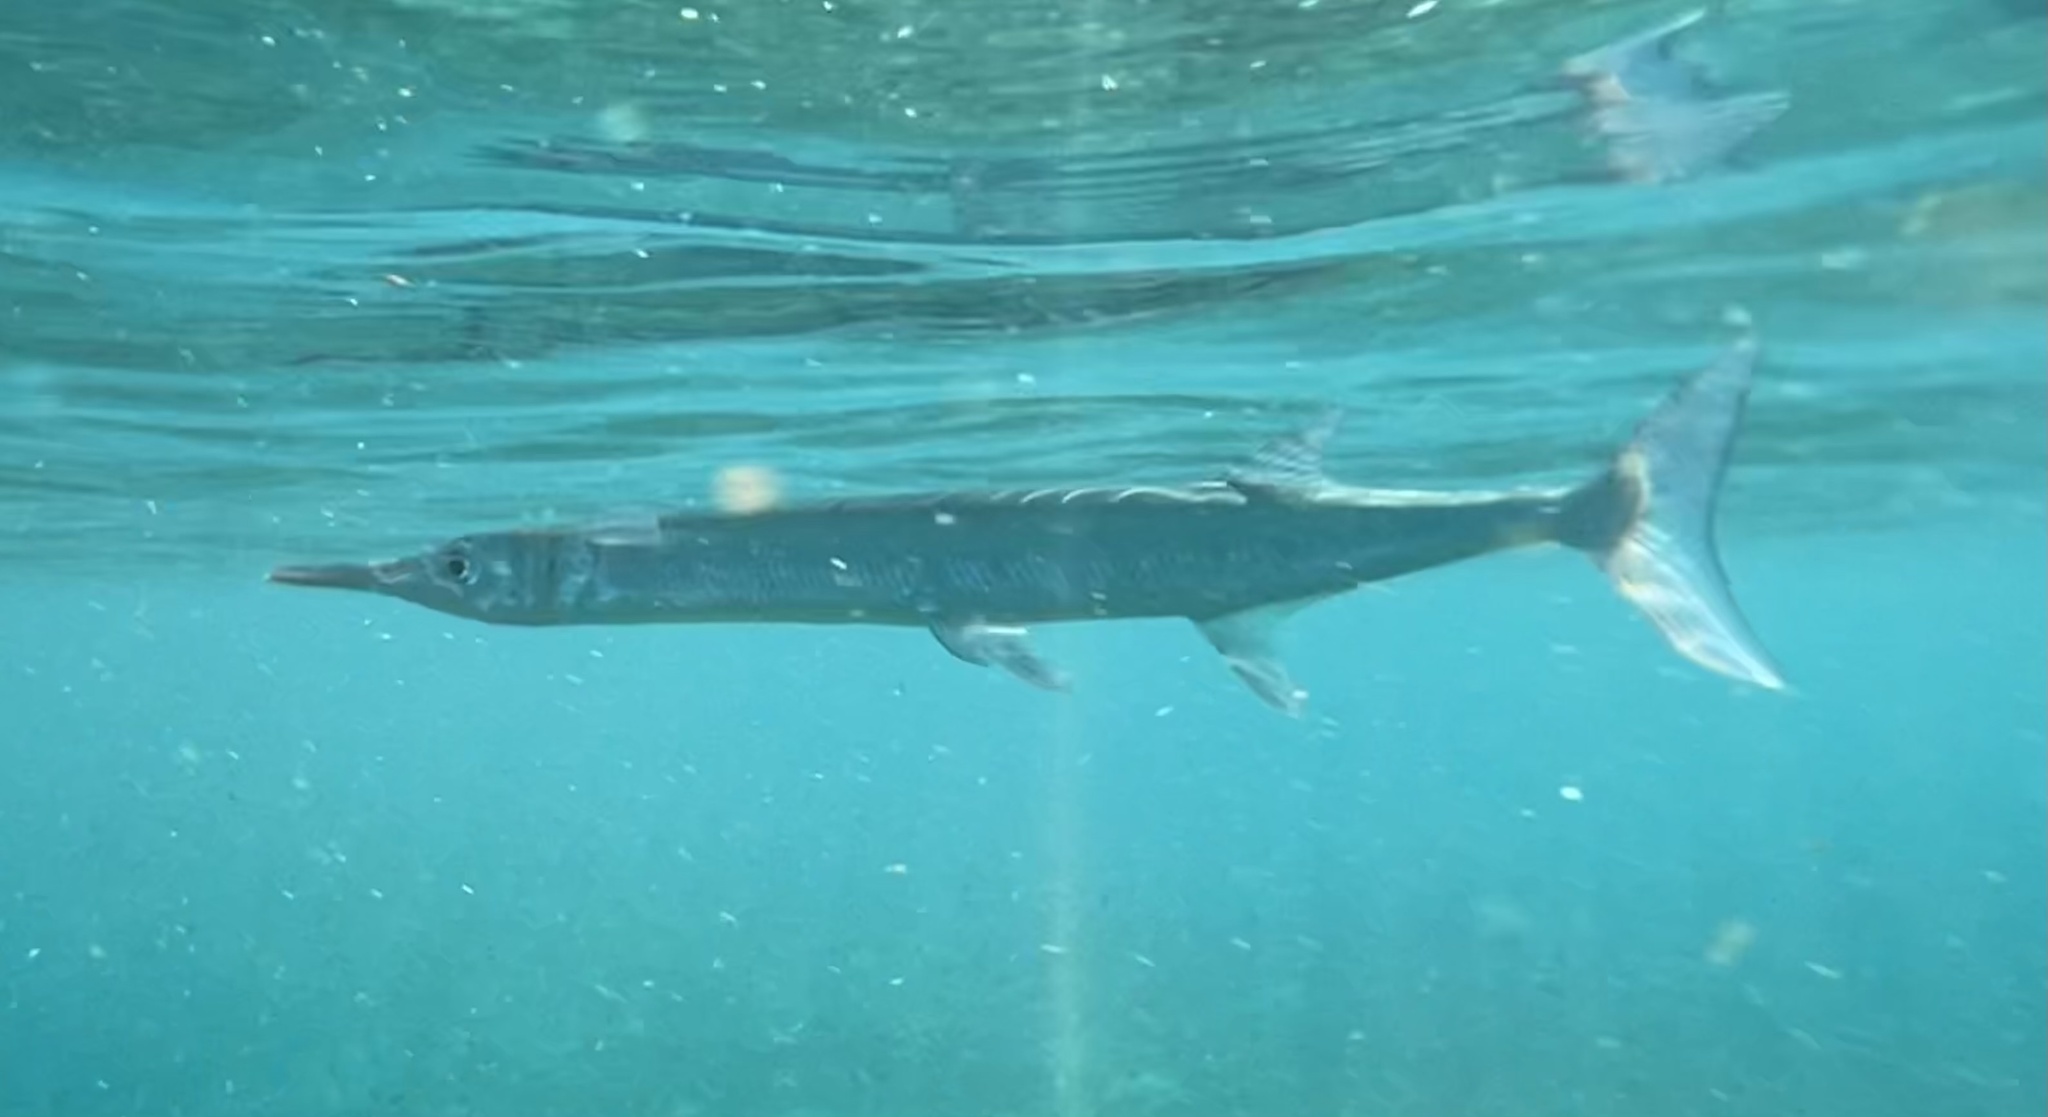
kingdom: Animalia
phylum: Chordata
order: Beloniformes
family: Belonidae
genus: Tylosurus
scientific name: Tylosurus crocodilus
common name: Houndfish
